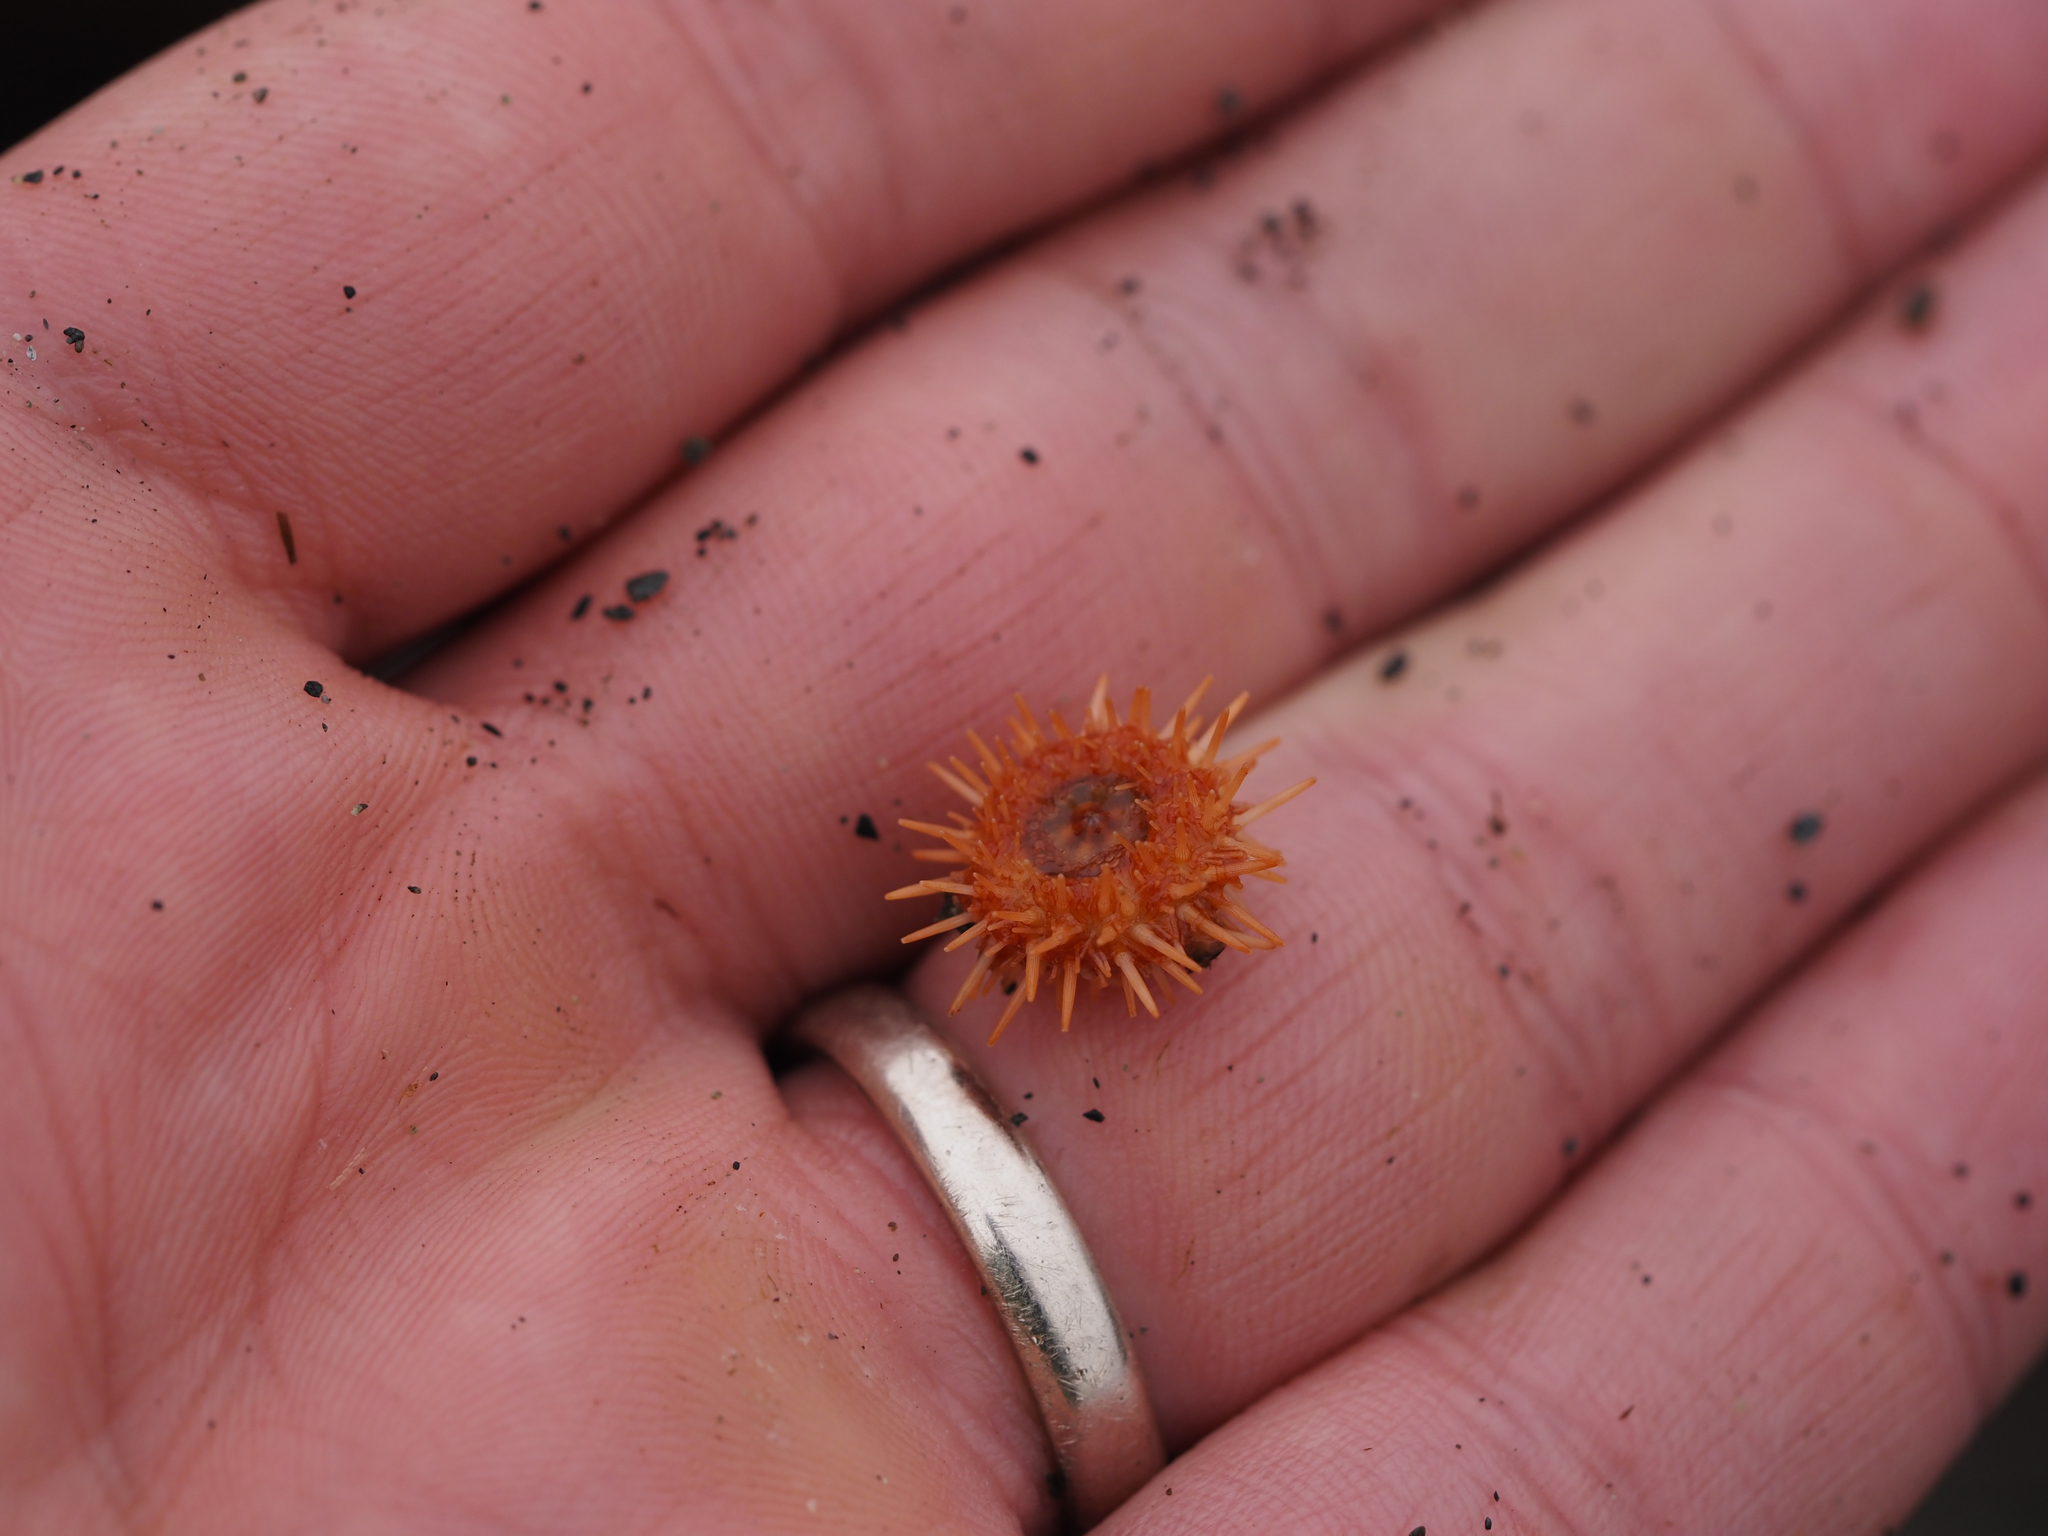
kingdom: Animalia
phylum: Echinodermata
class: Echinoidea
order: Camarodonta
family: Strongylocentrotidae
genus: Mesocentrotus
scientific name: Mesocentrotus franciscanus
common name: Red sea urchin
